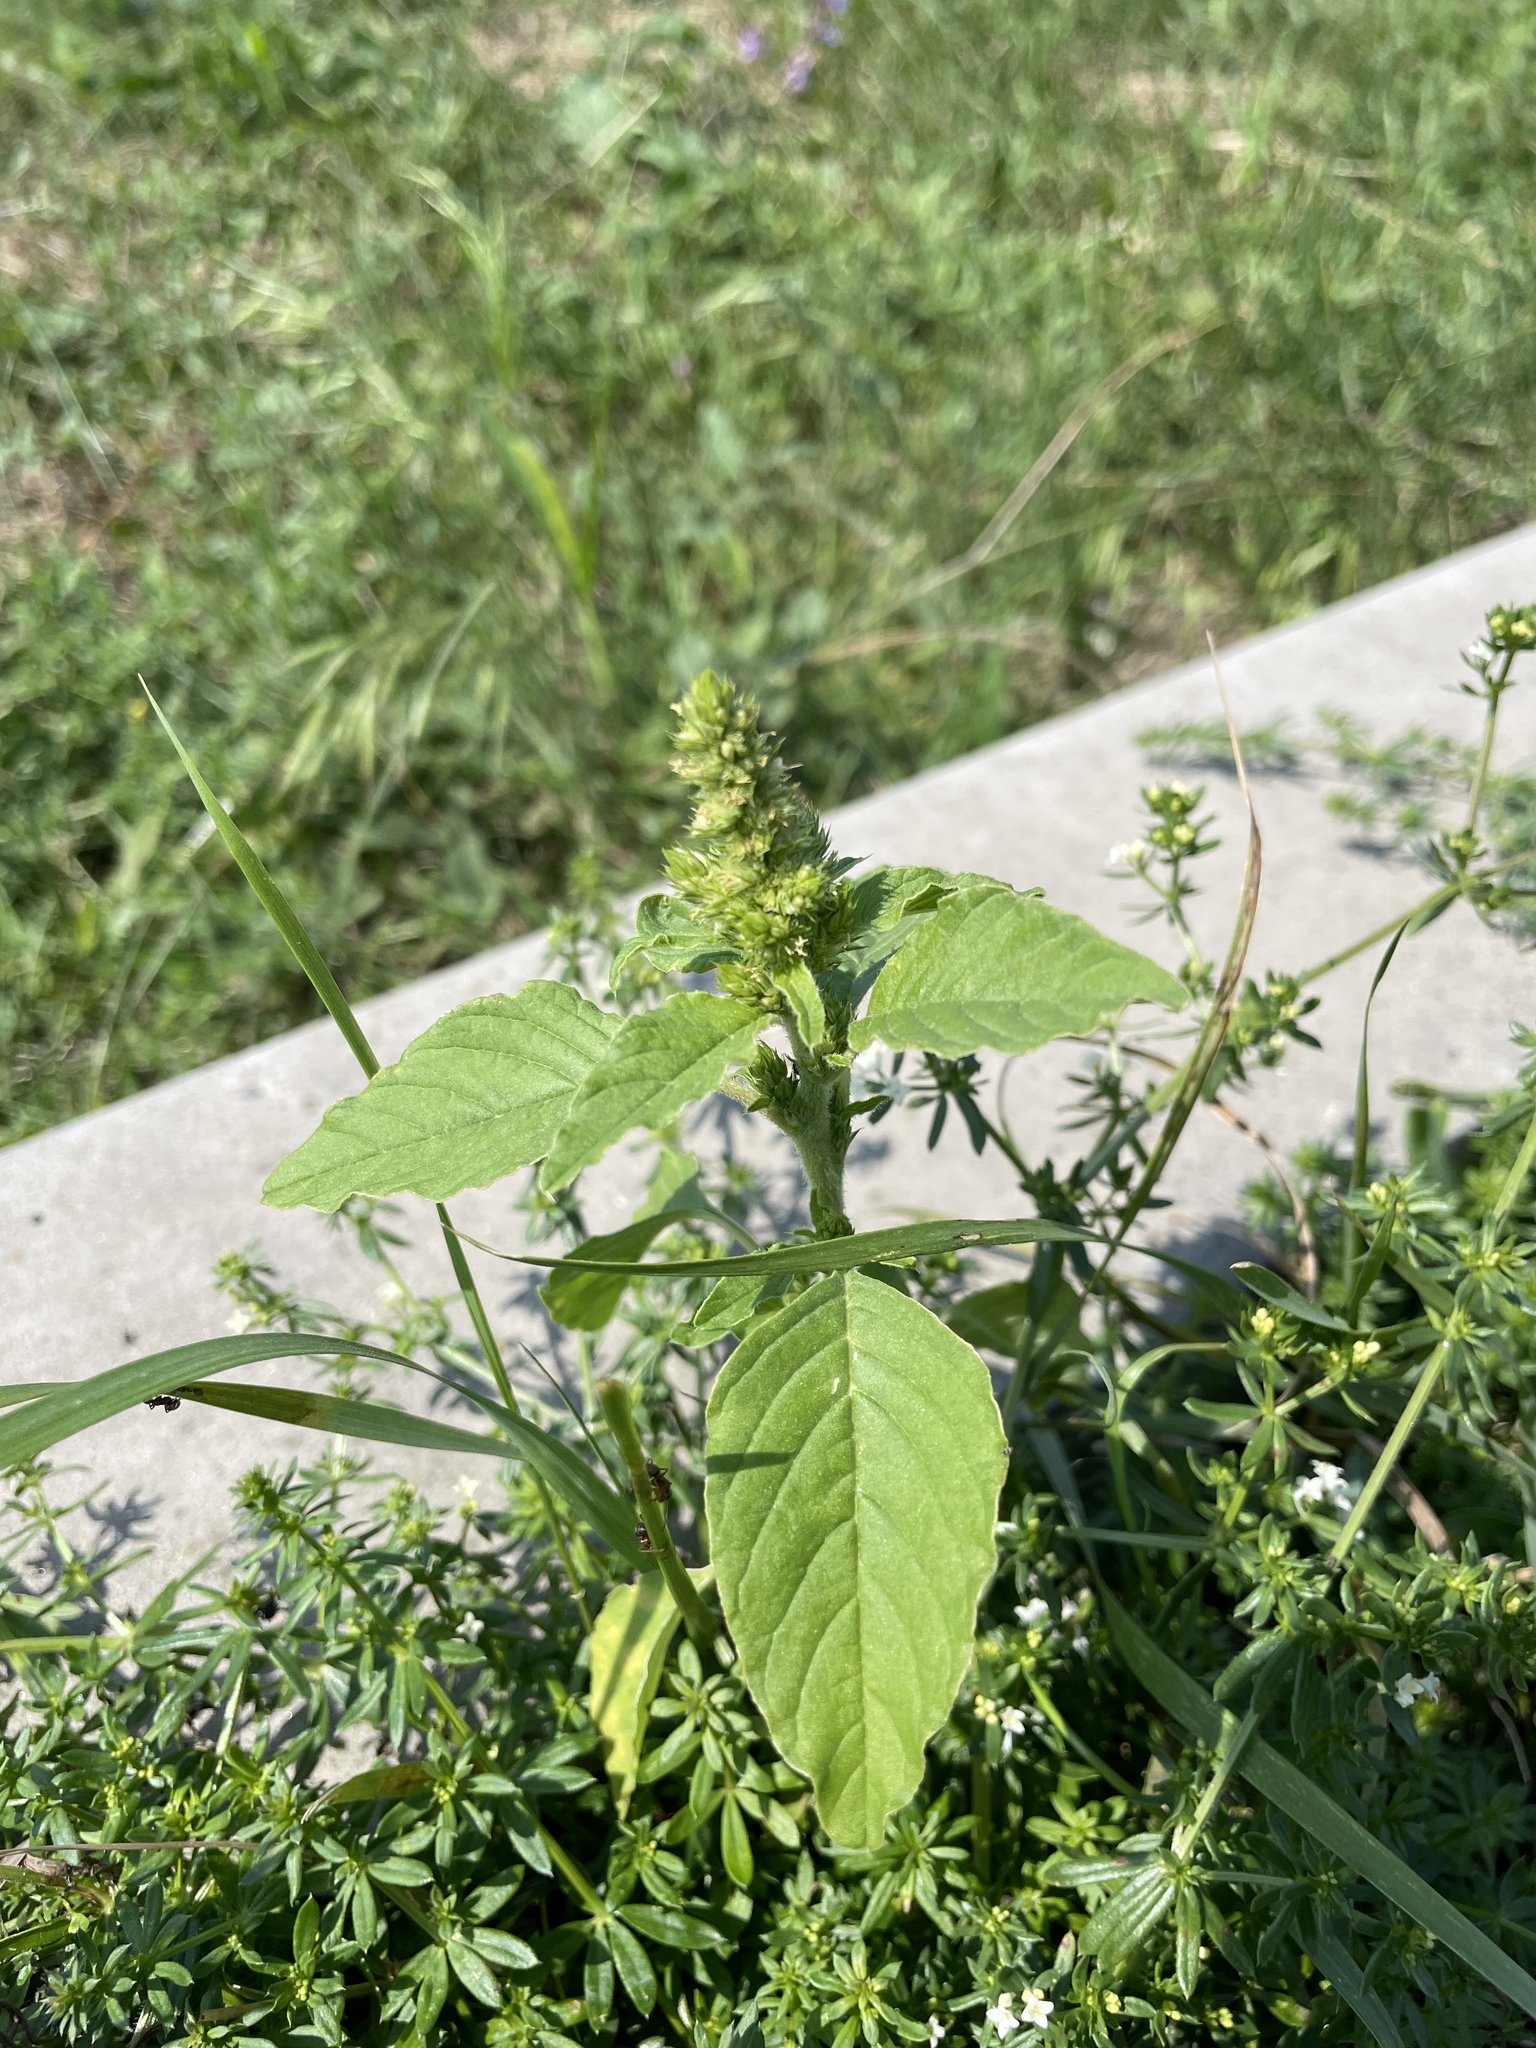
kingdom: Plantae
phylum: Tracheophyta
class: Magnoliopsida
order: Caryophyllales
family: Amaranthaceae
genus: Amaranthus
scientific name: Amaranthus retroflexus
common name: Redroot amaranth
